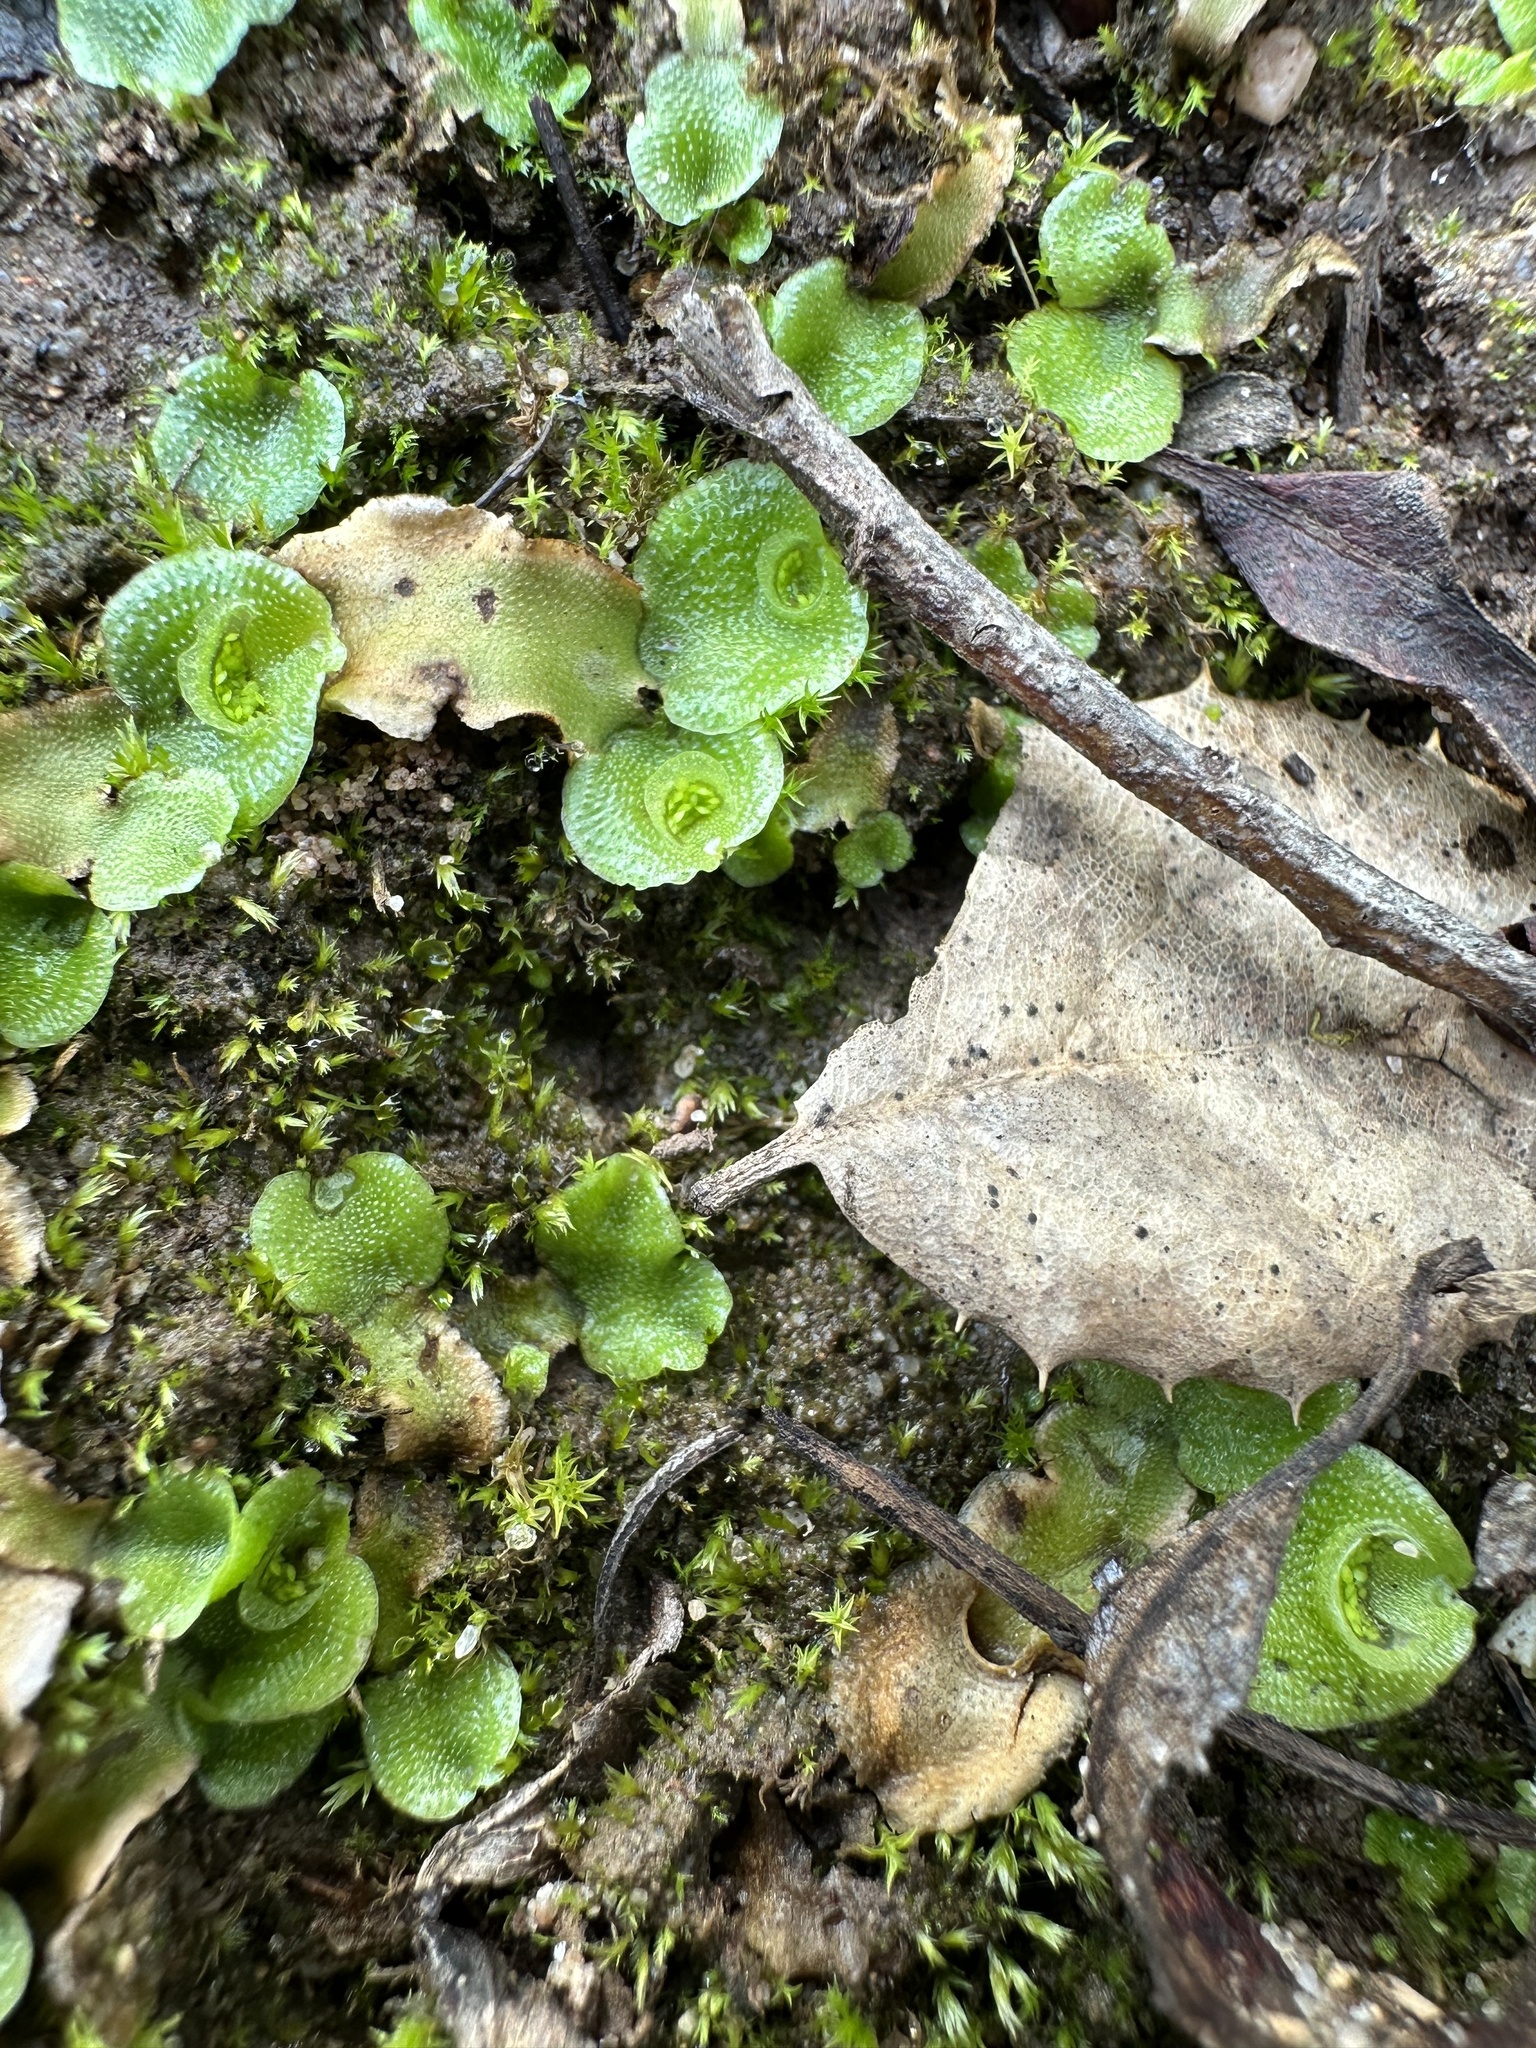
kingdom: Plantae
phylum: Marchantiophyta
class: Marchantiopsida
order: Lunulariales
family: Lunulariaceae
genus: Lunularia
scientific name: Lunularia cruciata
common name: Crescent-cup liverwort
